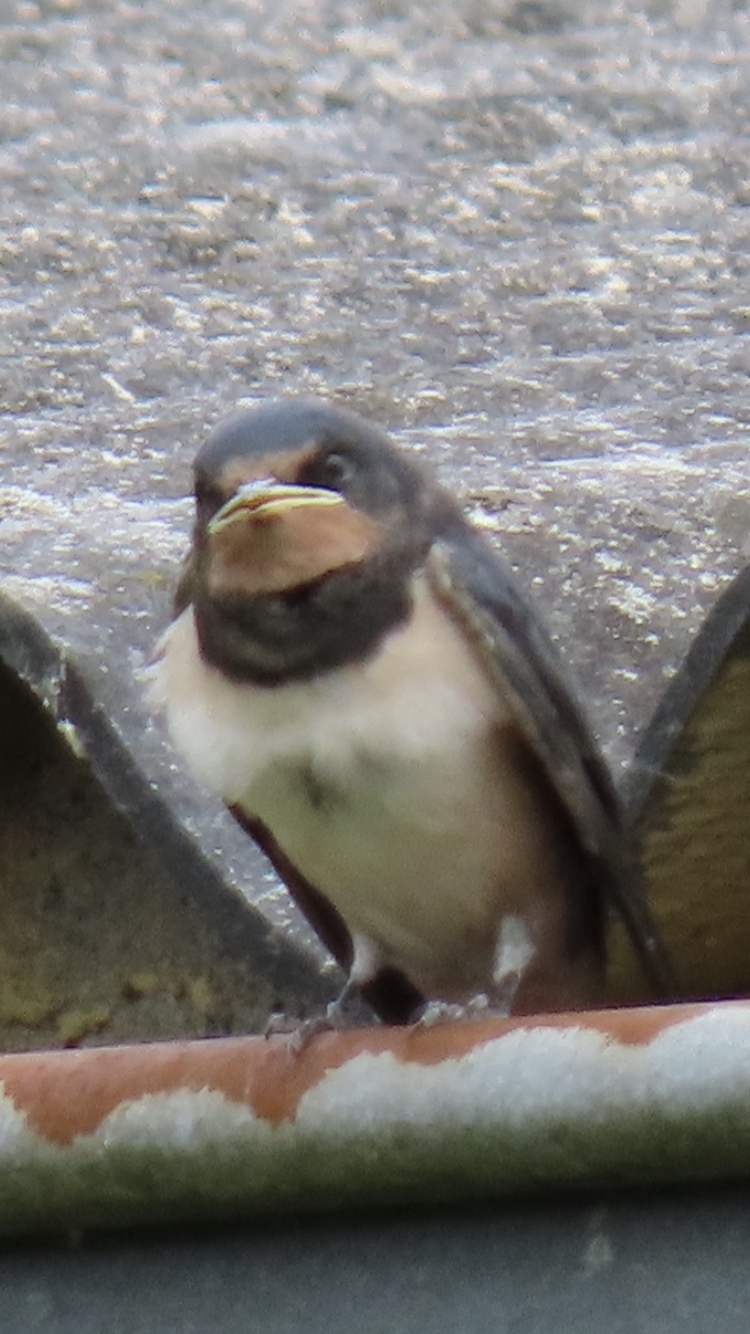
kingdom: Animalia
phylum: Chordata
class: Aves
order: Passeriformes
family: Hirundinidae
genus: Hirundo
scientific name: Hirundo rustica
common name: Barn swallow
